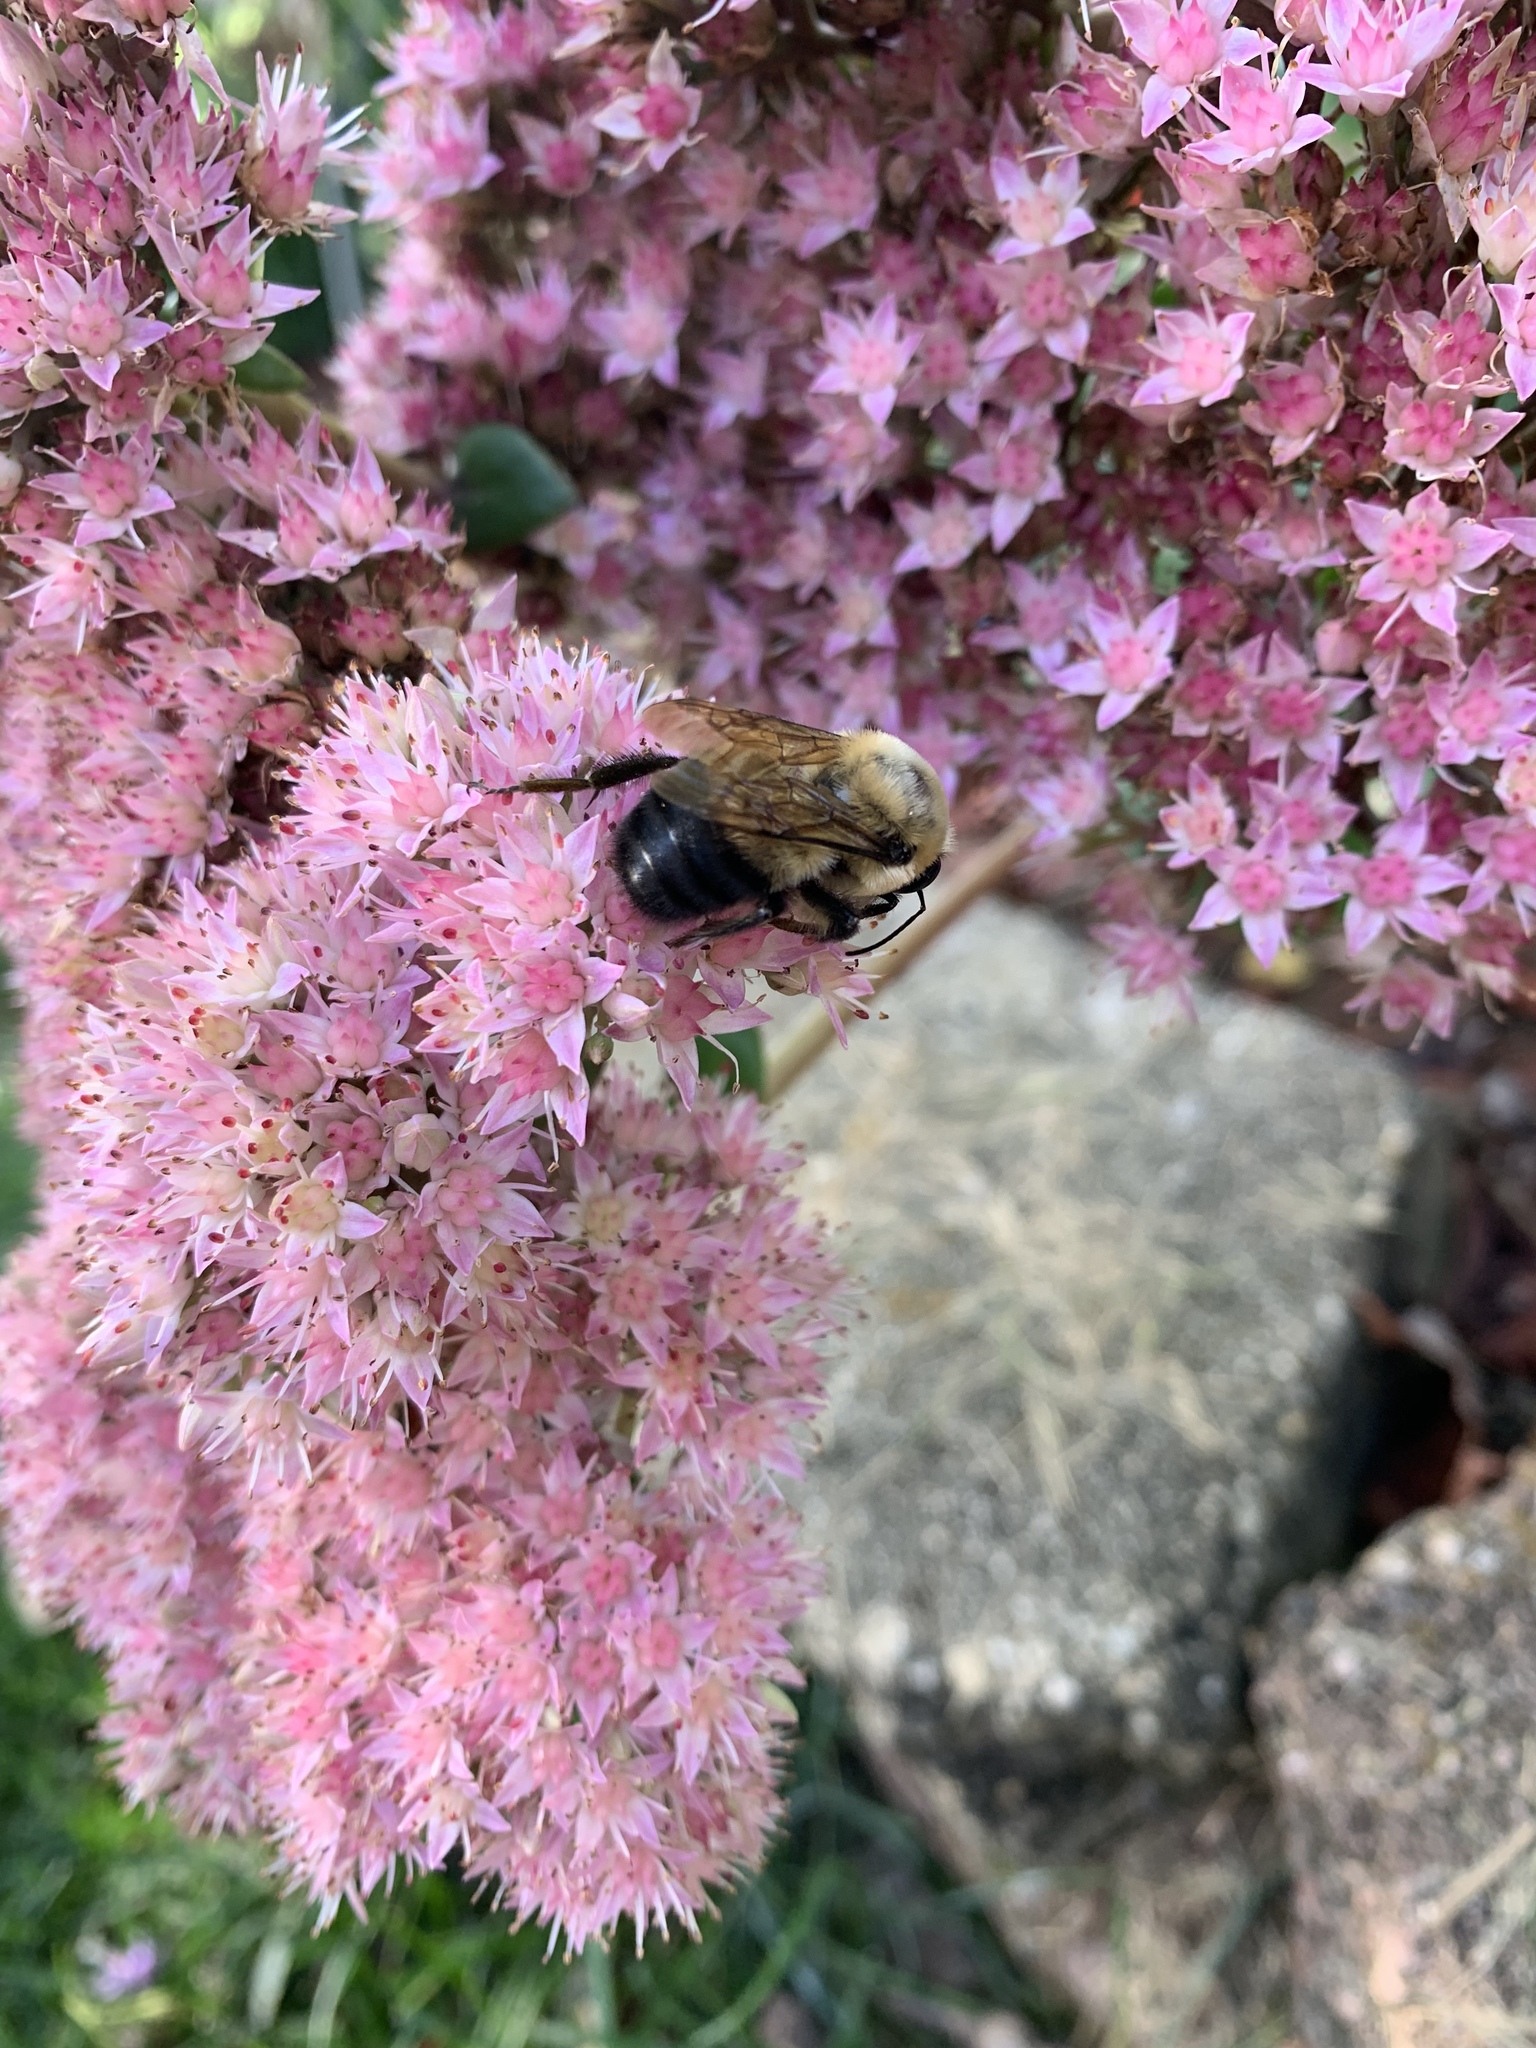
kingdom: Animalia
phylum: Arthropoda
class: Insecta
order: Hymenoptera
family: Apidae
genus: Bombus
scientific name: Bombus griseocollis
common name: Brown-belted bumble bee
